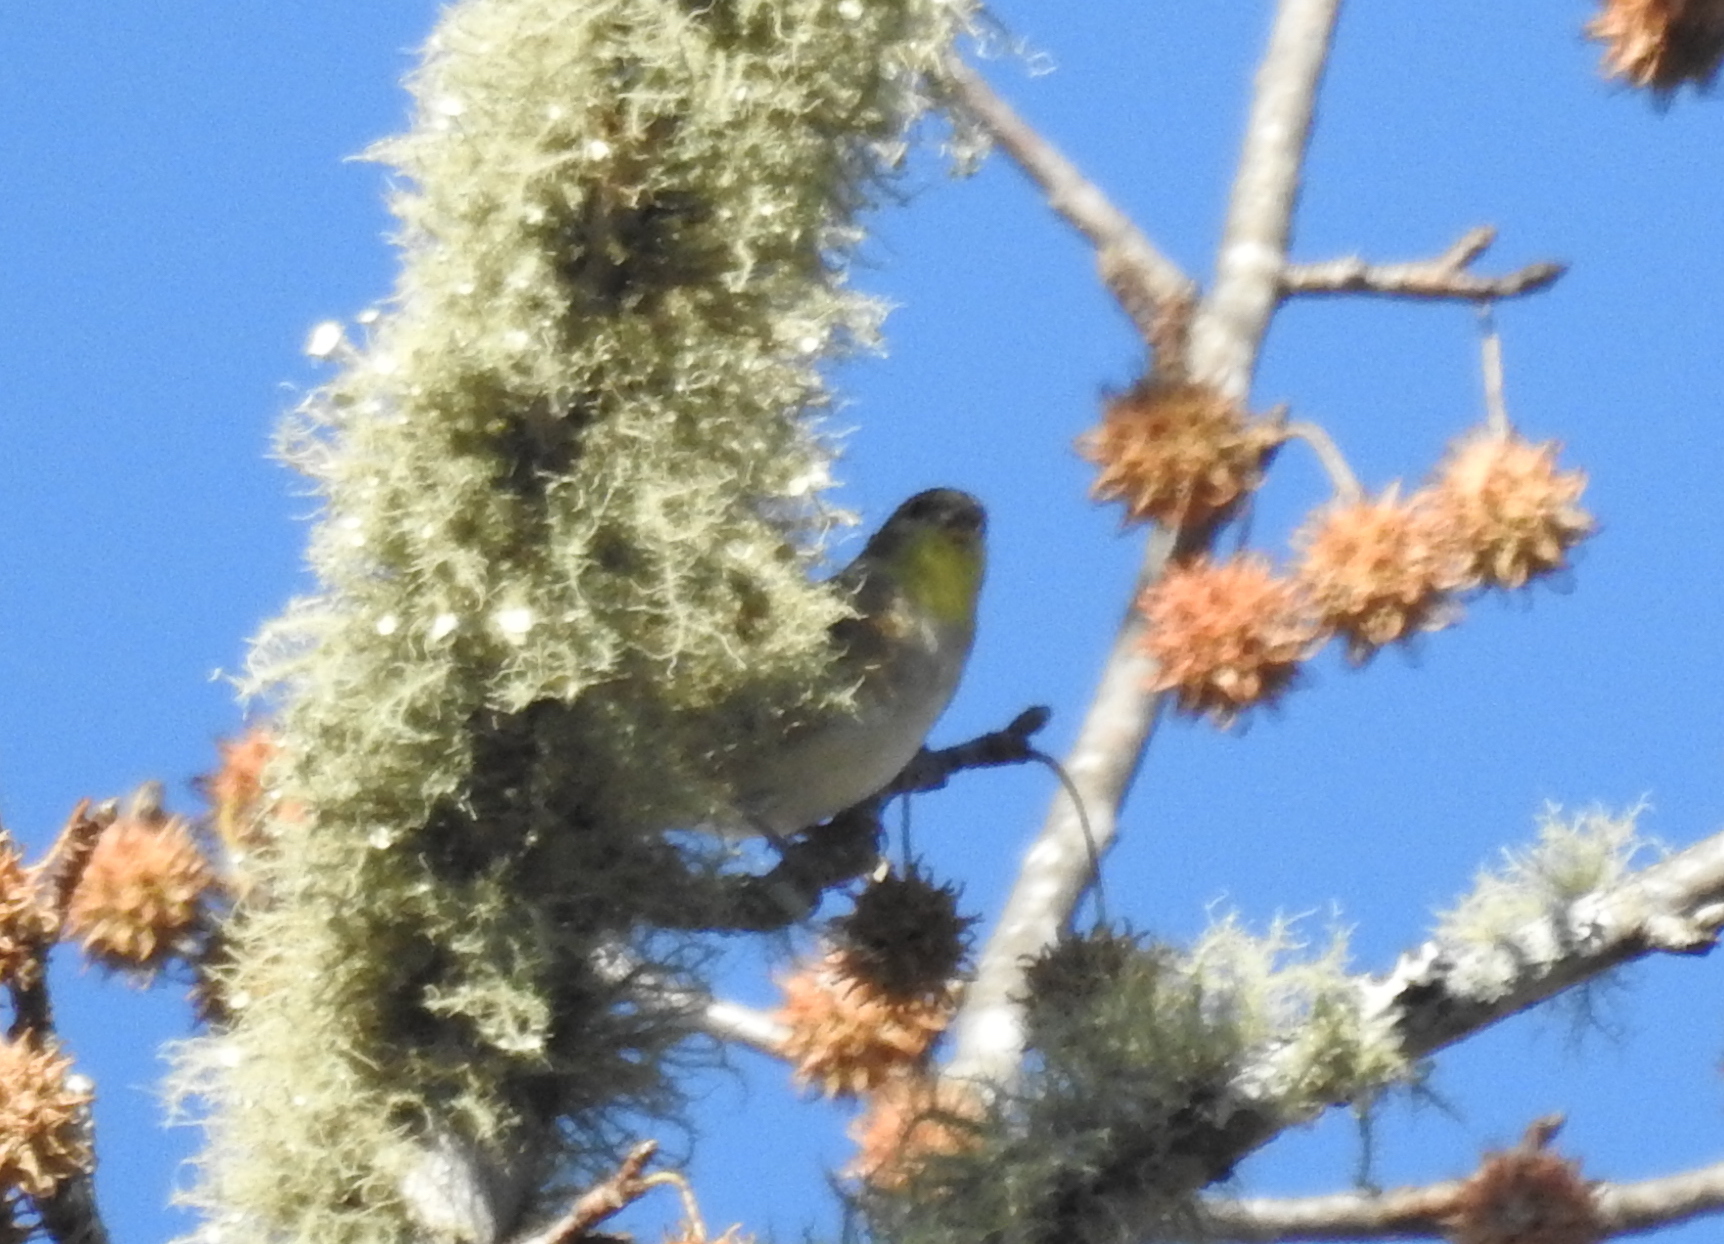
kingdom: Animalia
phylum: Chordata
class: Aves
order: Passeriformes
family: Fringillidae
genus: Spinus
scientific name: Spinus tristis
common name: American goldfinch
